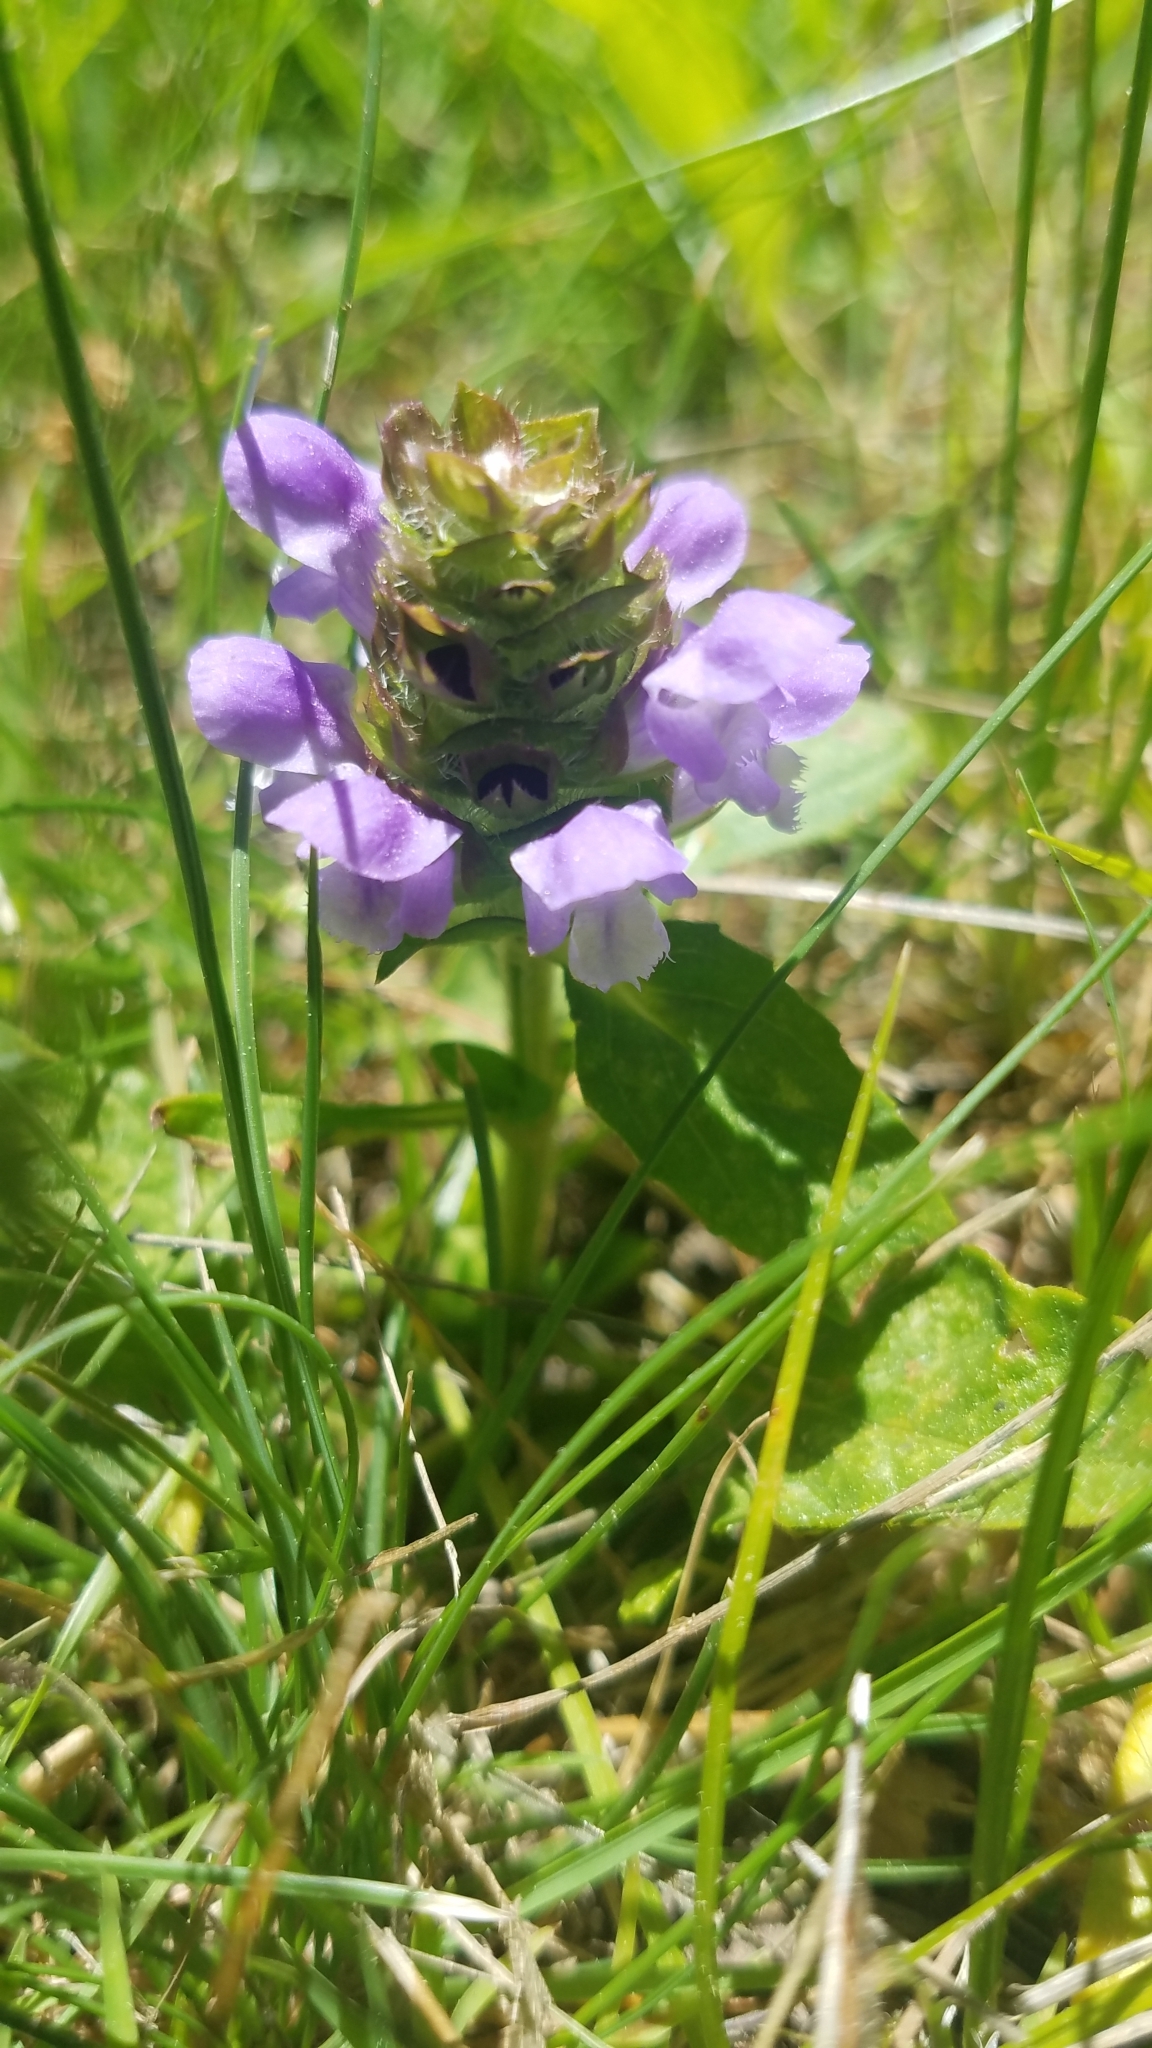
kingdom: Plantae
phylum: Tracheophyta
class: Magnoliopsida
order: Lamiales
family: Lamiaceae
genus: Prunella
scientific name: Prunella vulgaris
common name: Heal-all
